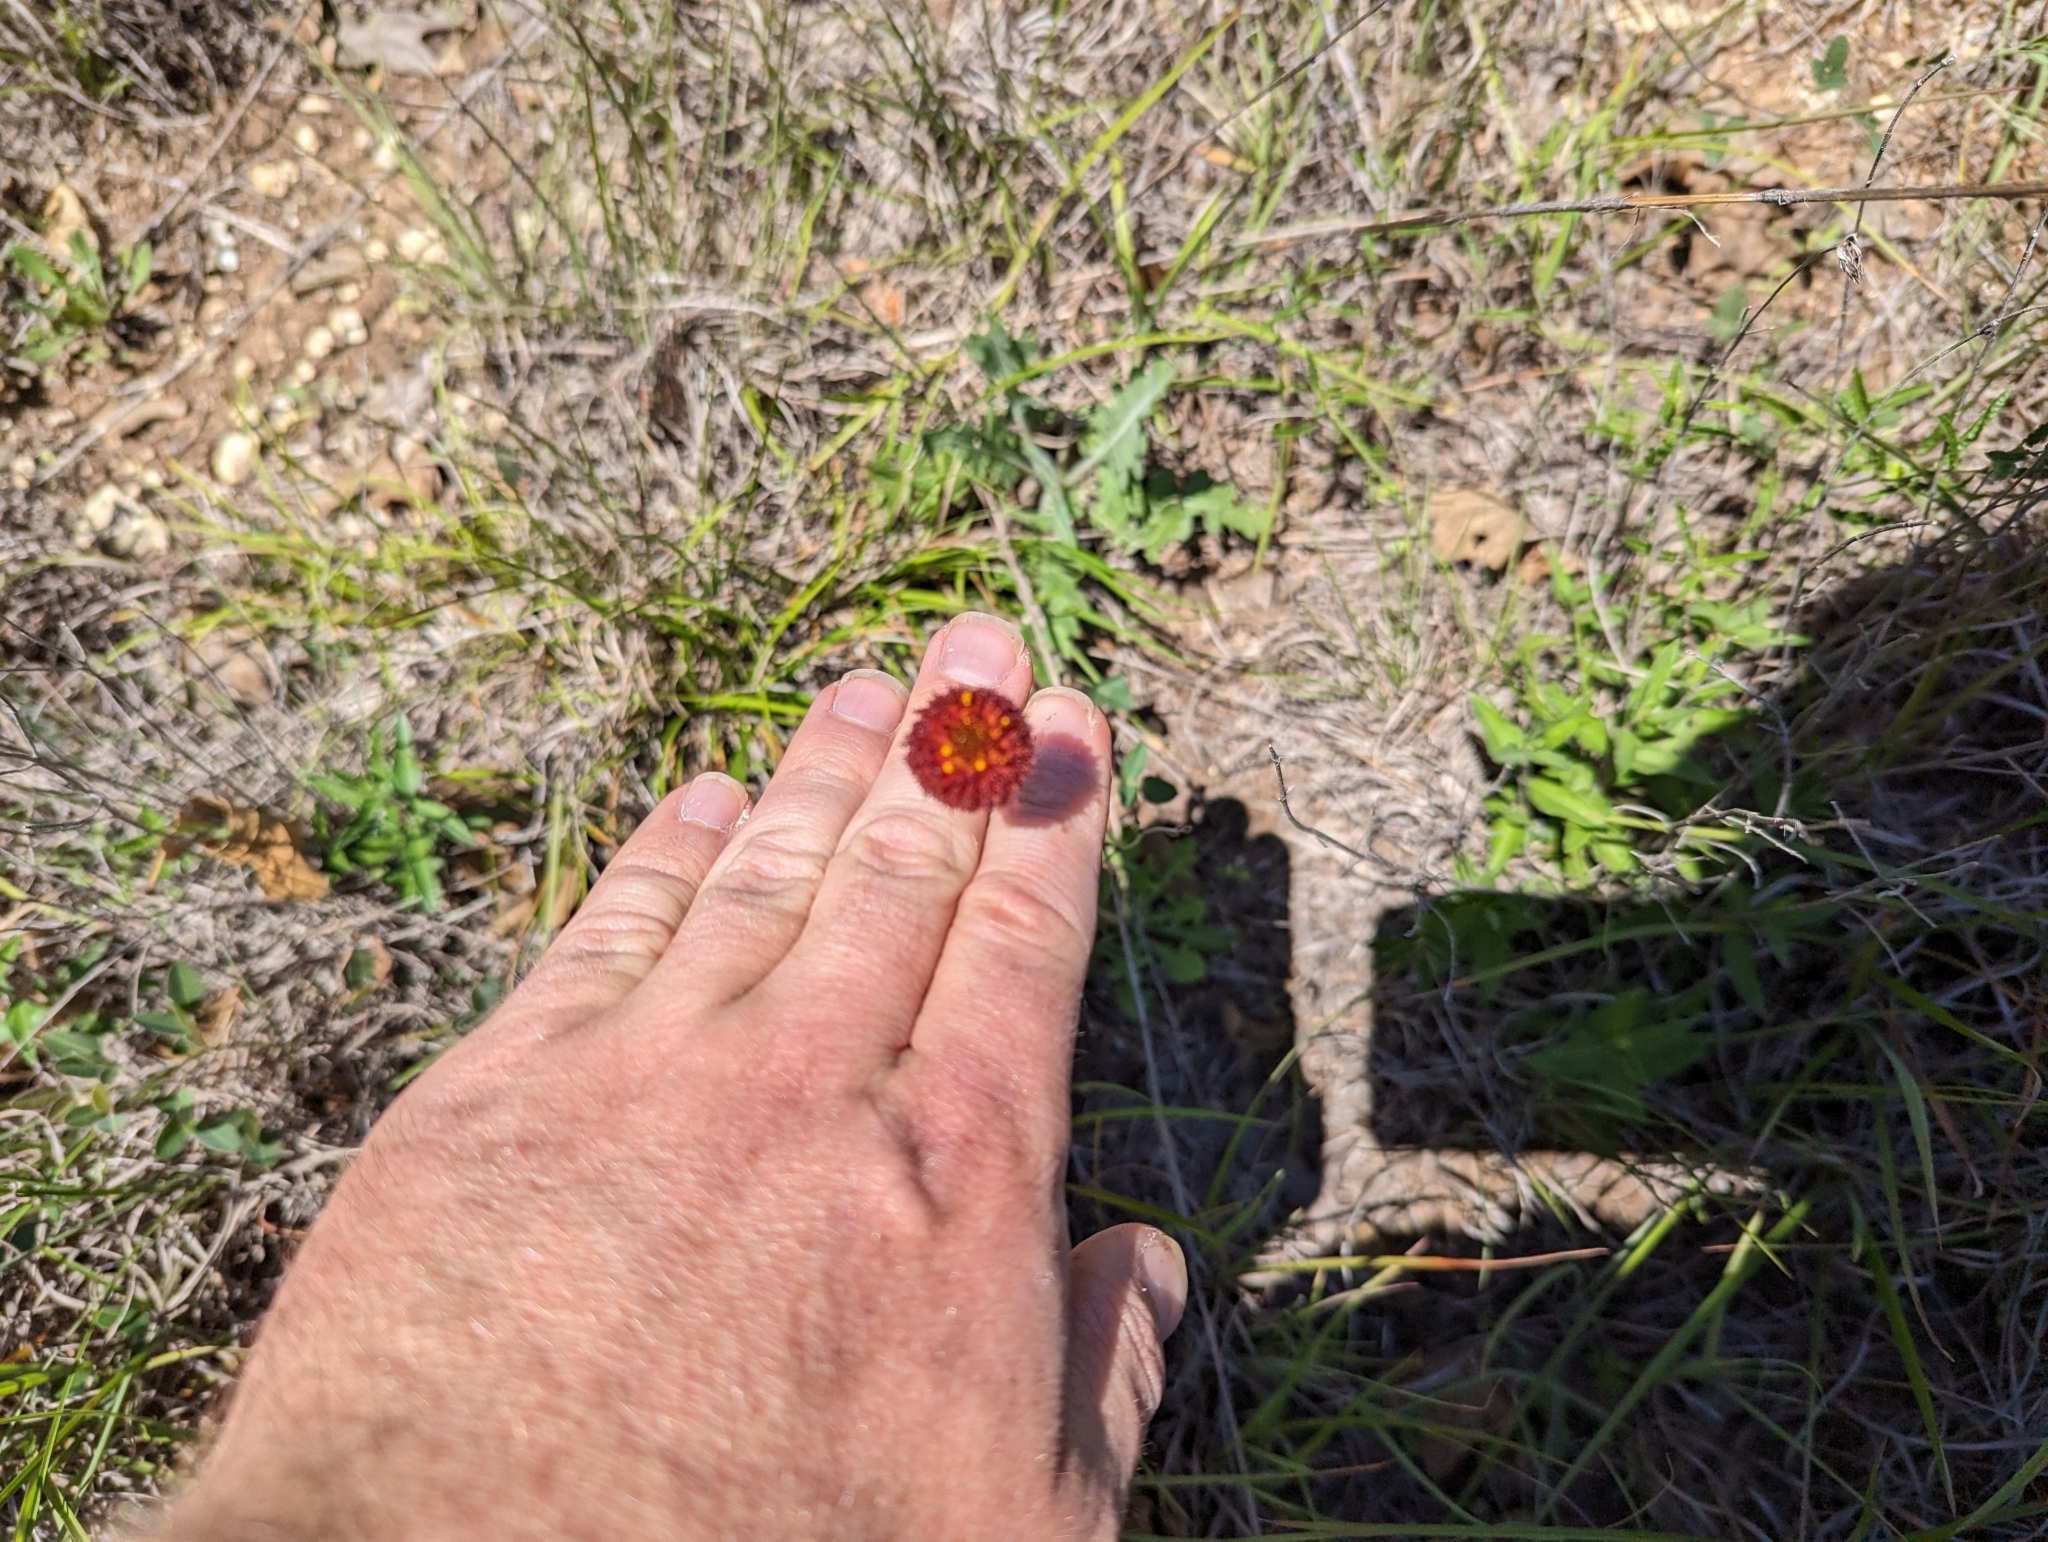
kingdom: Plantae
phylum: Tracheophyta
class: Magnoliopsida
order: Asterales
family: Asteraceae
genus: Gaillardia
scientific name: Gaillardia suavis
